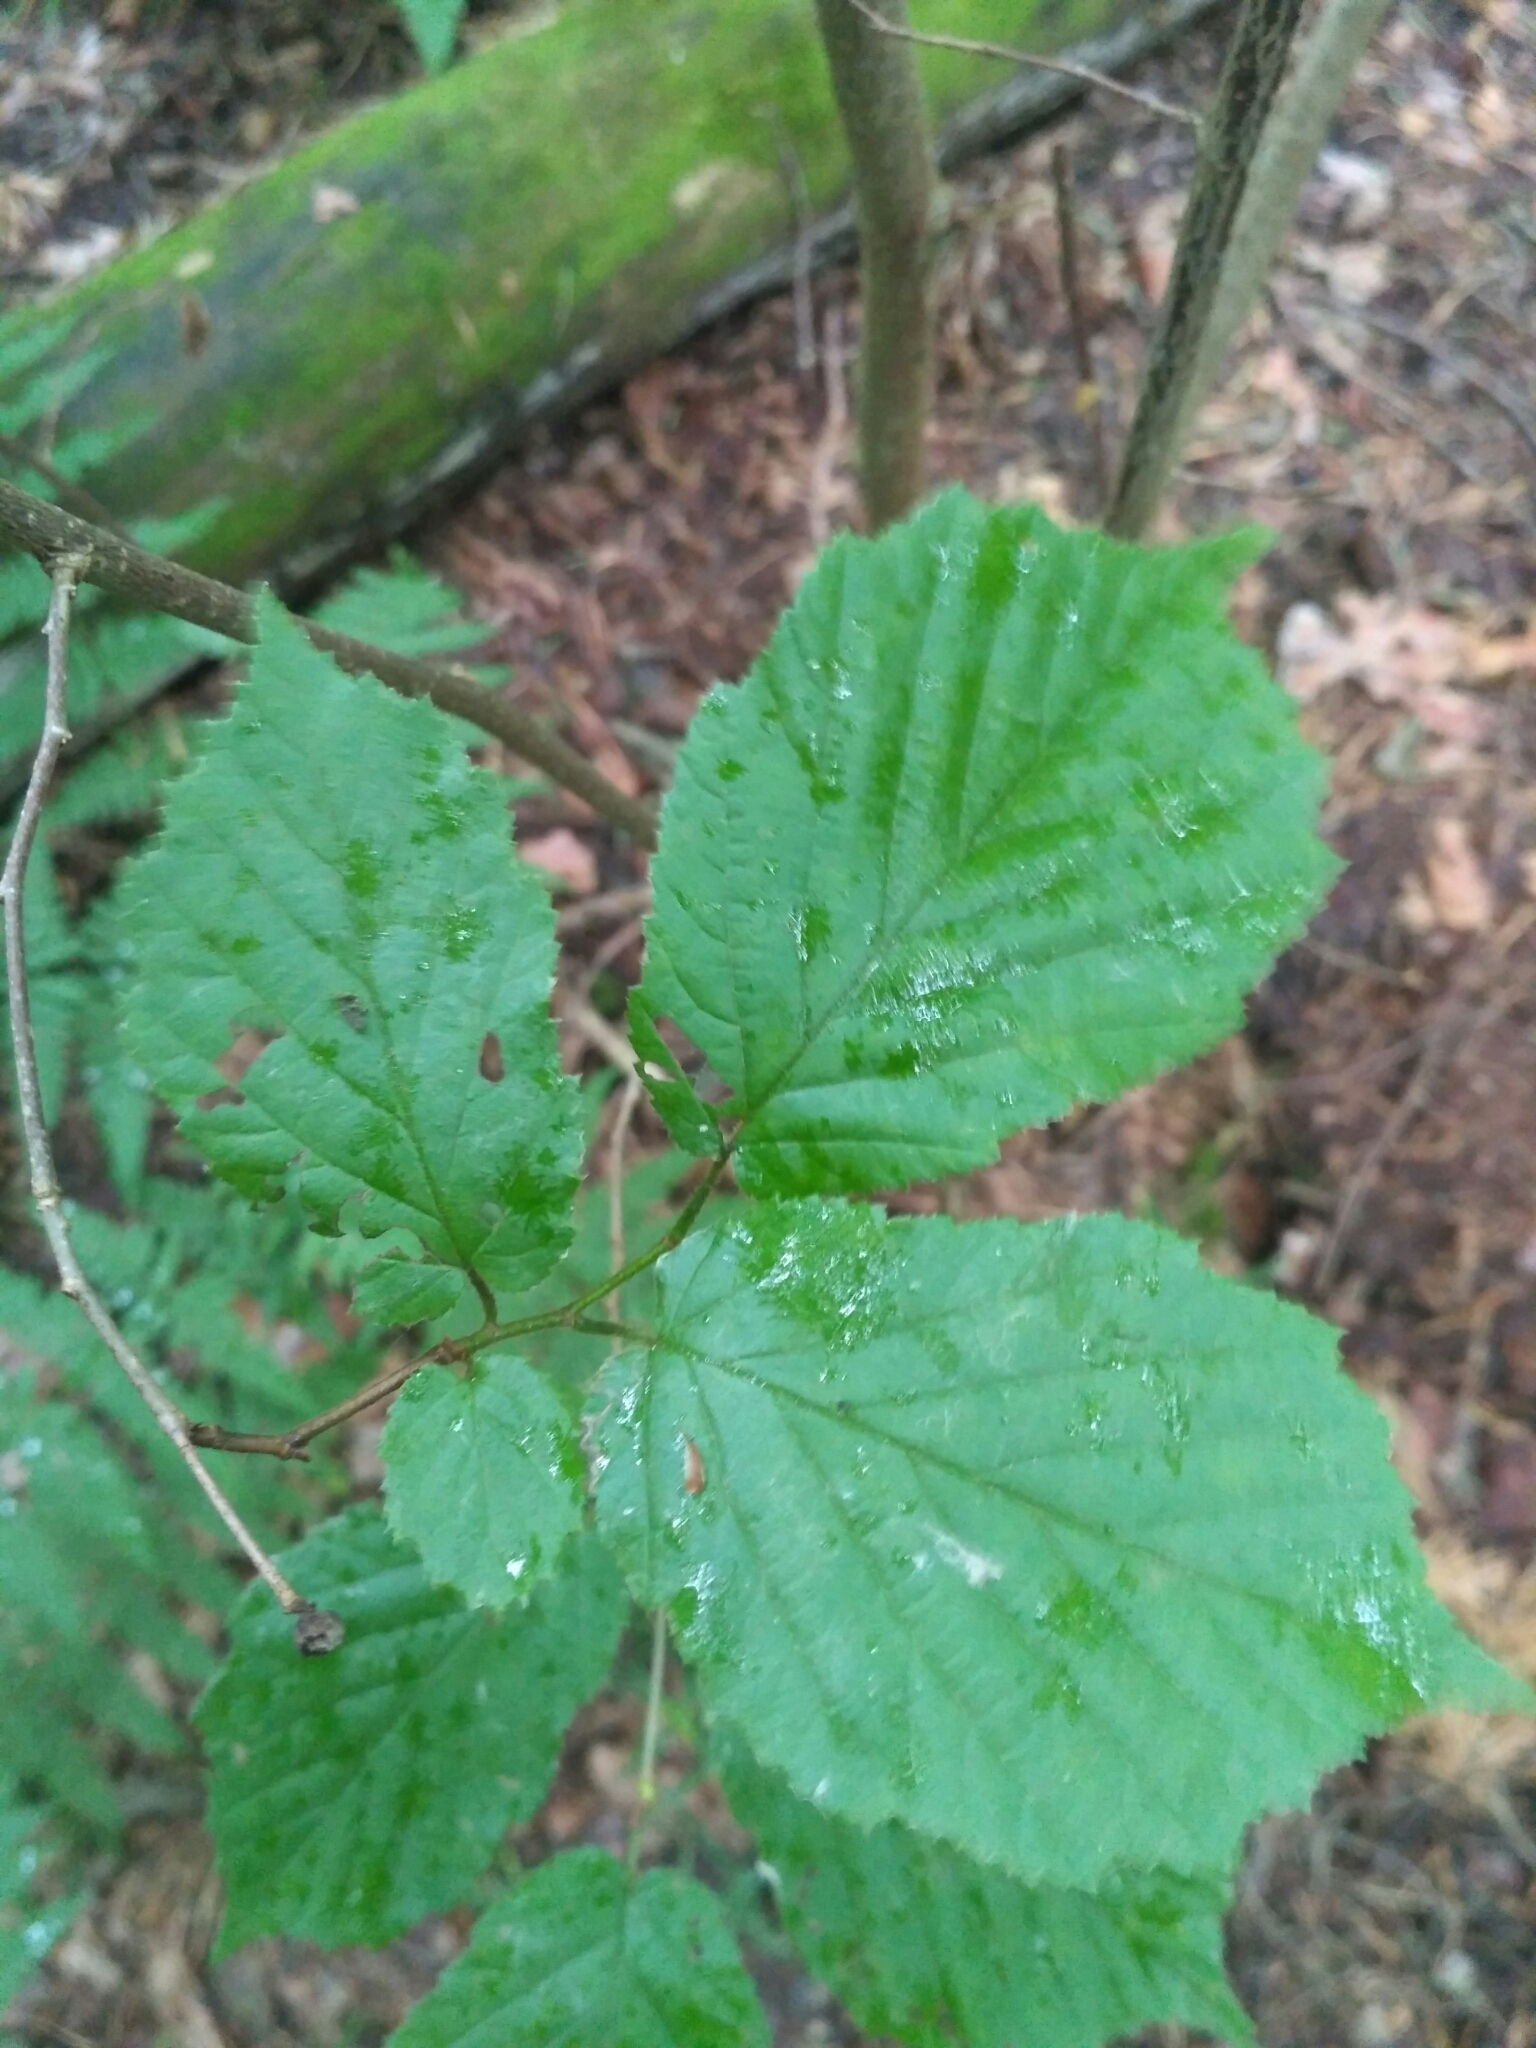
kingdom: Plantae
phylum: Tracheophyta
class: Magnoliopsida
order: Fagales
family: Betulaceae
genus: Corylus
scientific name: Corylus avellana
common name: European hazel
